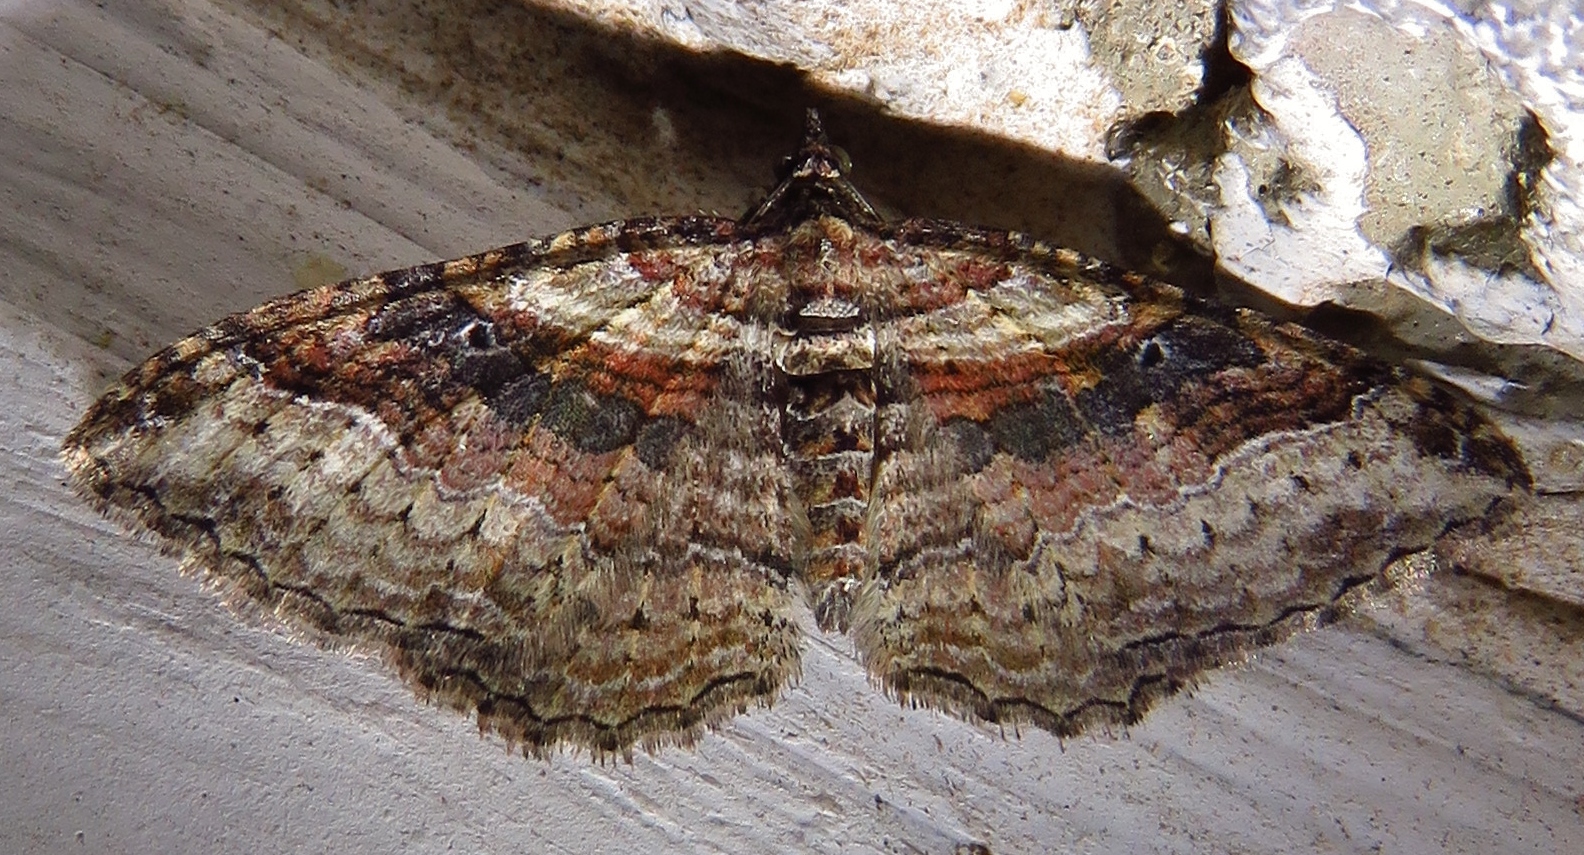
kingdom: Animalia
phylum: Arthropoda
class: Insecta
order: Lepidoptera
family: Geometridae
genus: Costaconvexa
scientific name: Costaconvexa centrostrigaria
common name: Bent-line carpet
